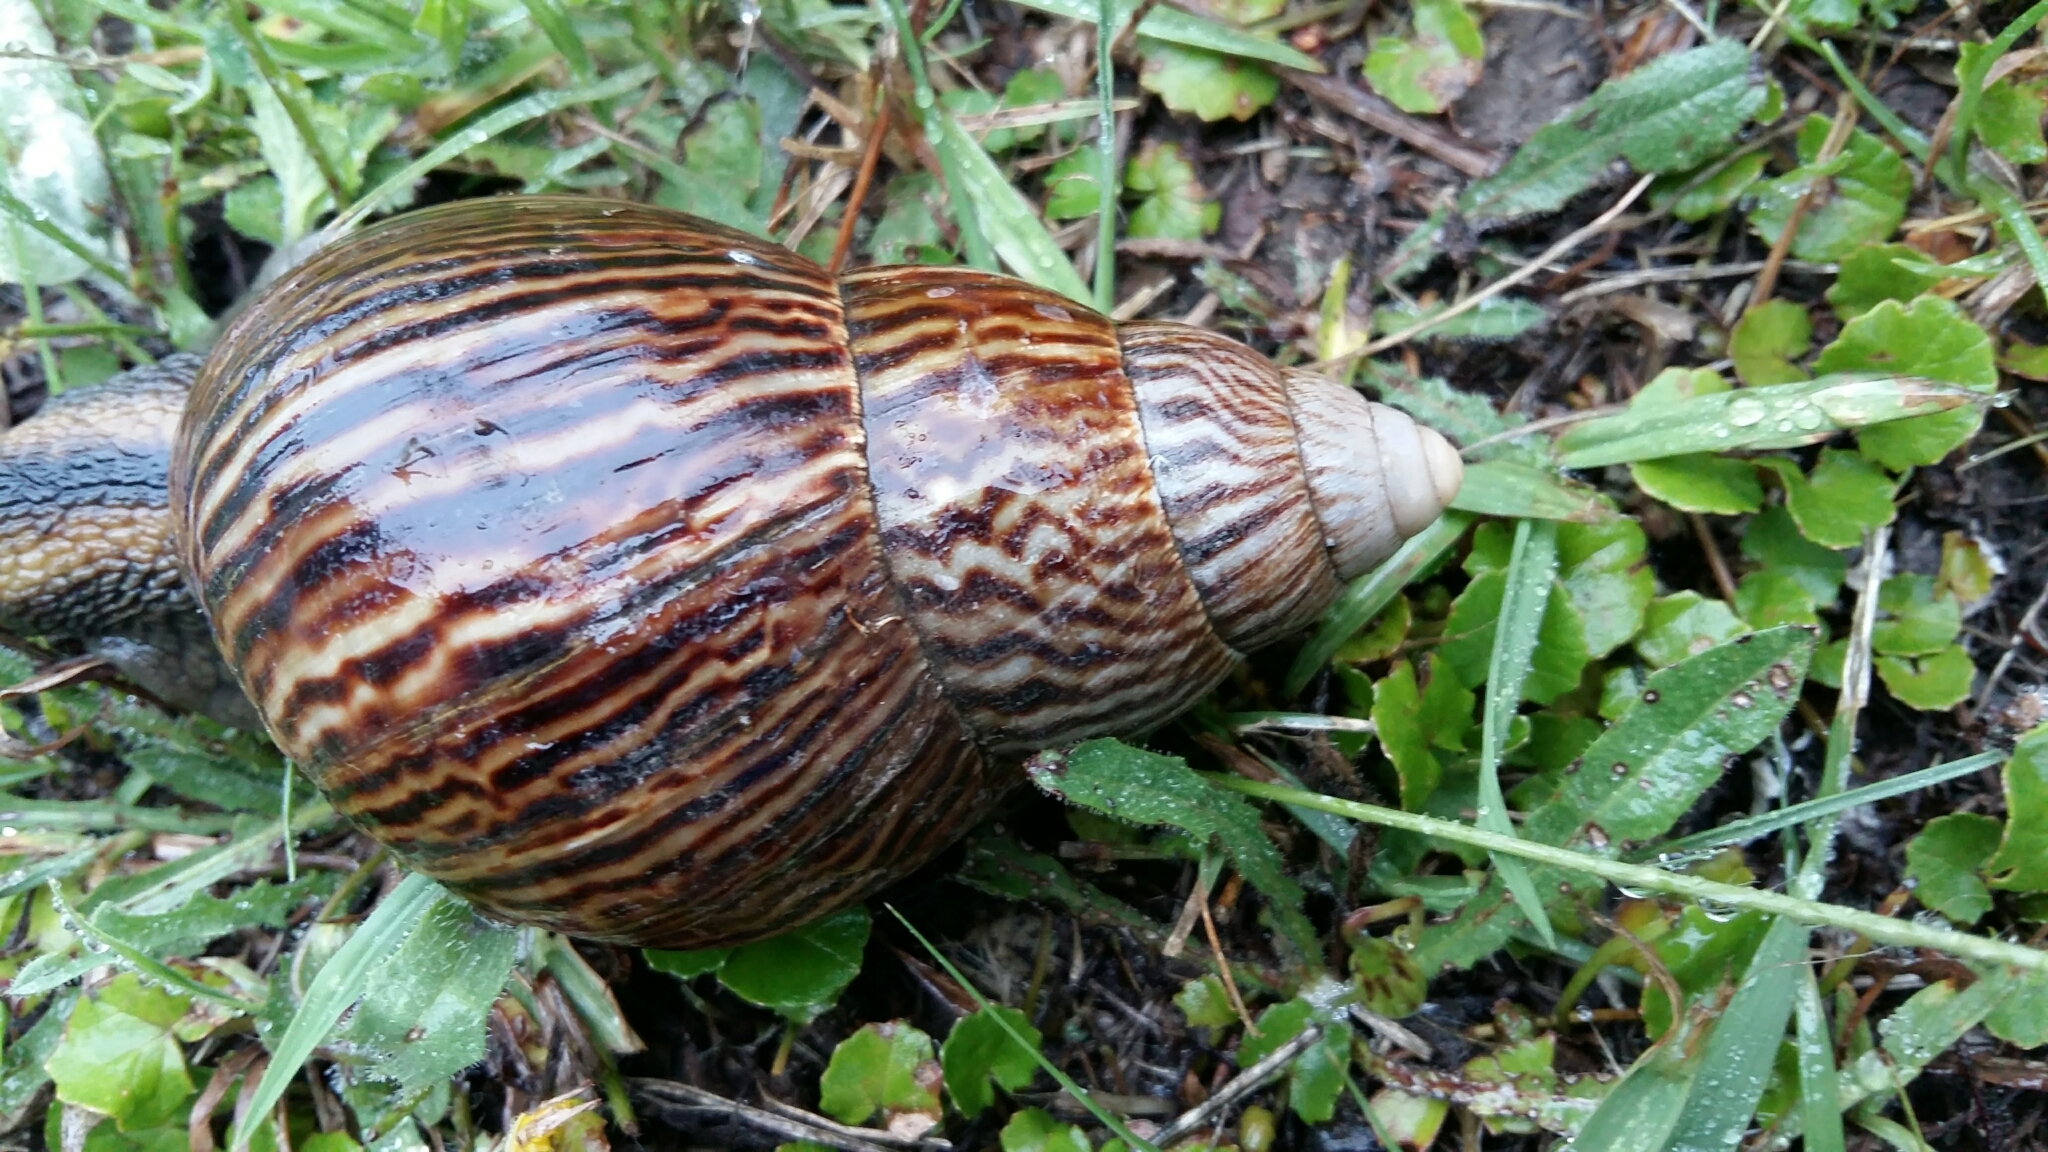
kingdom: Animalia
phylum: Mollusca
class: Gastropoda
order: Stylommatophora
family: Achatinidae
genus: Cochlitoma
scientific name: Cochlitoma zebra
